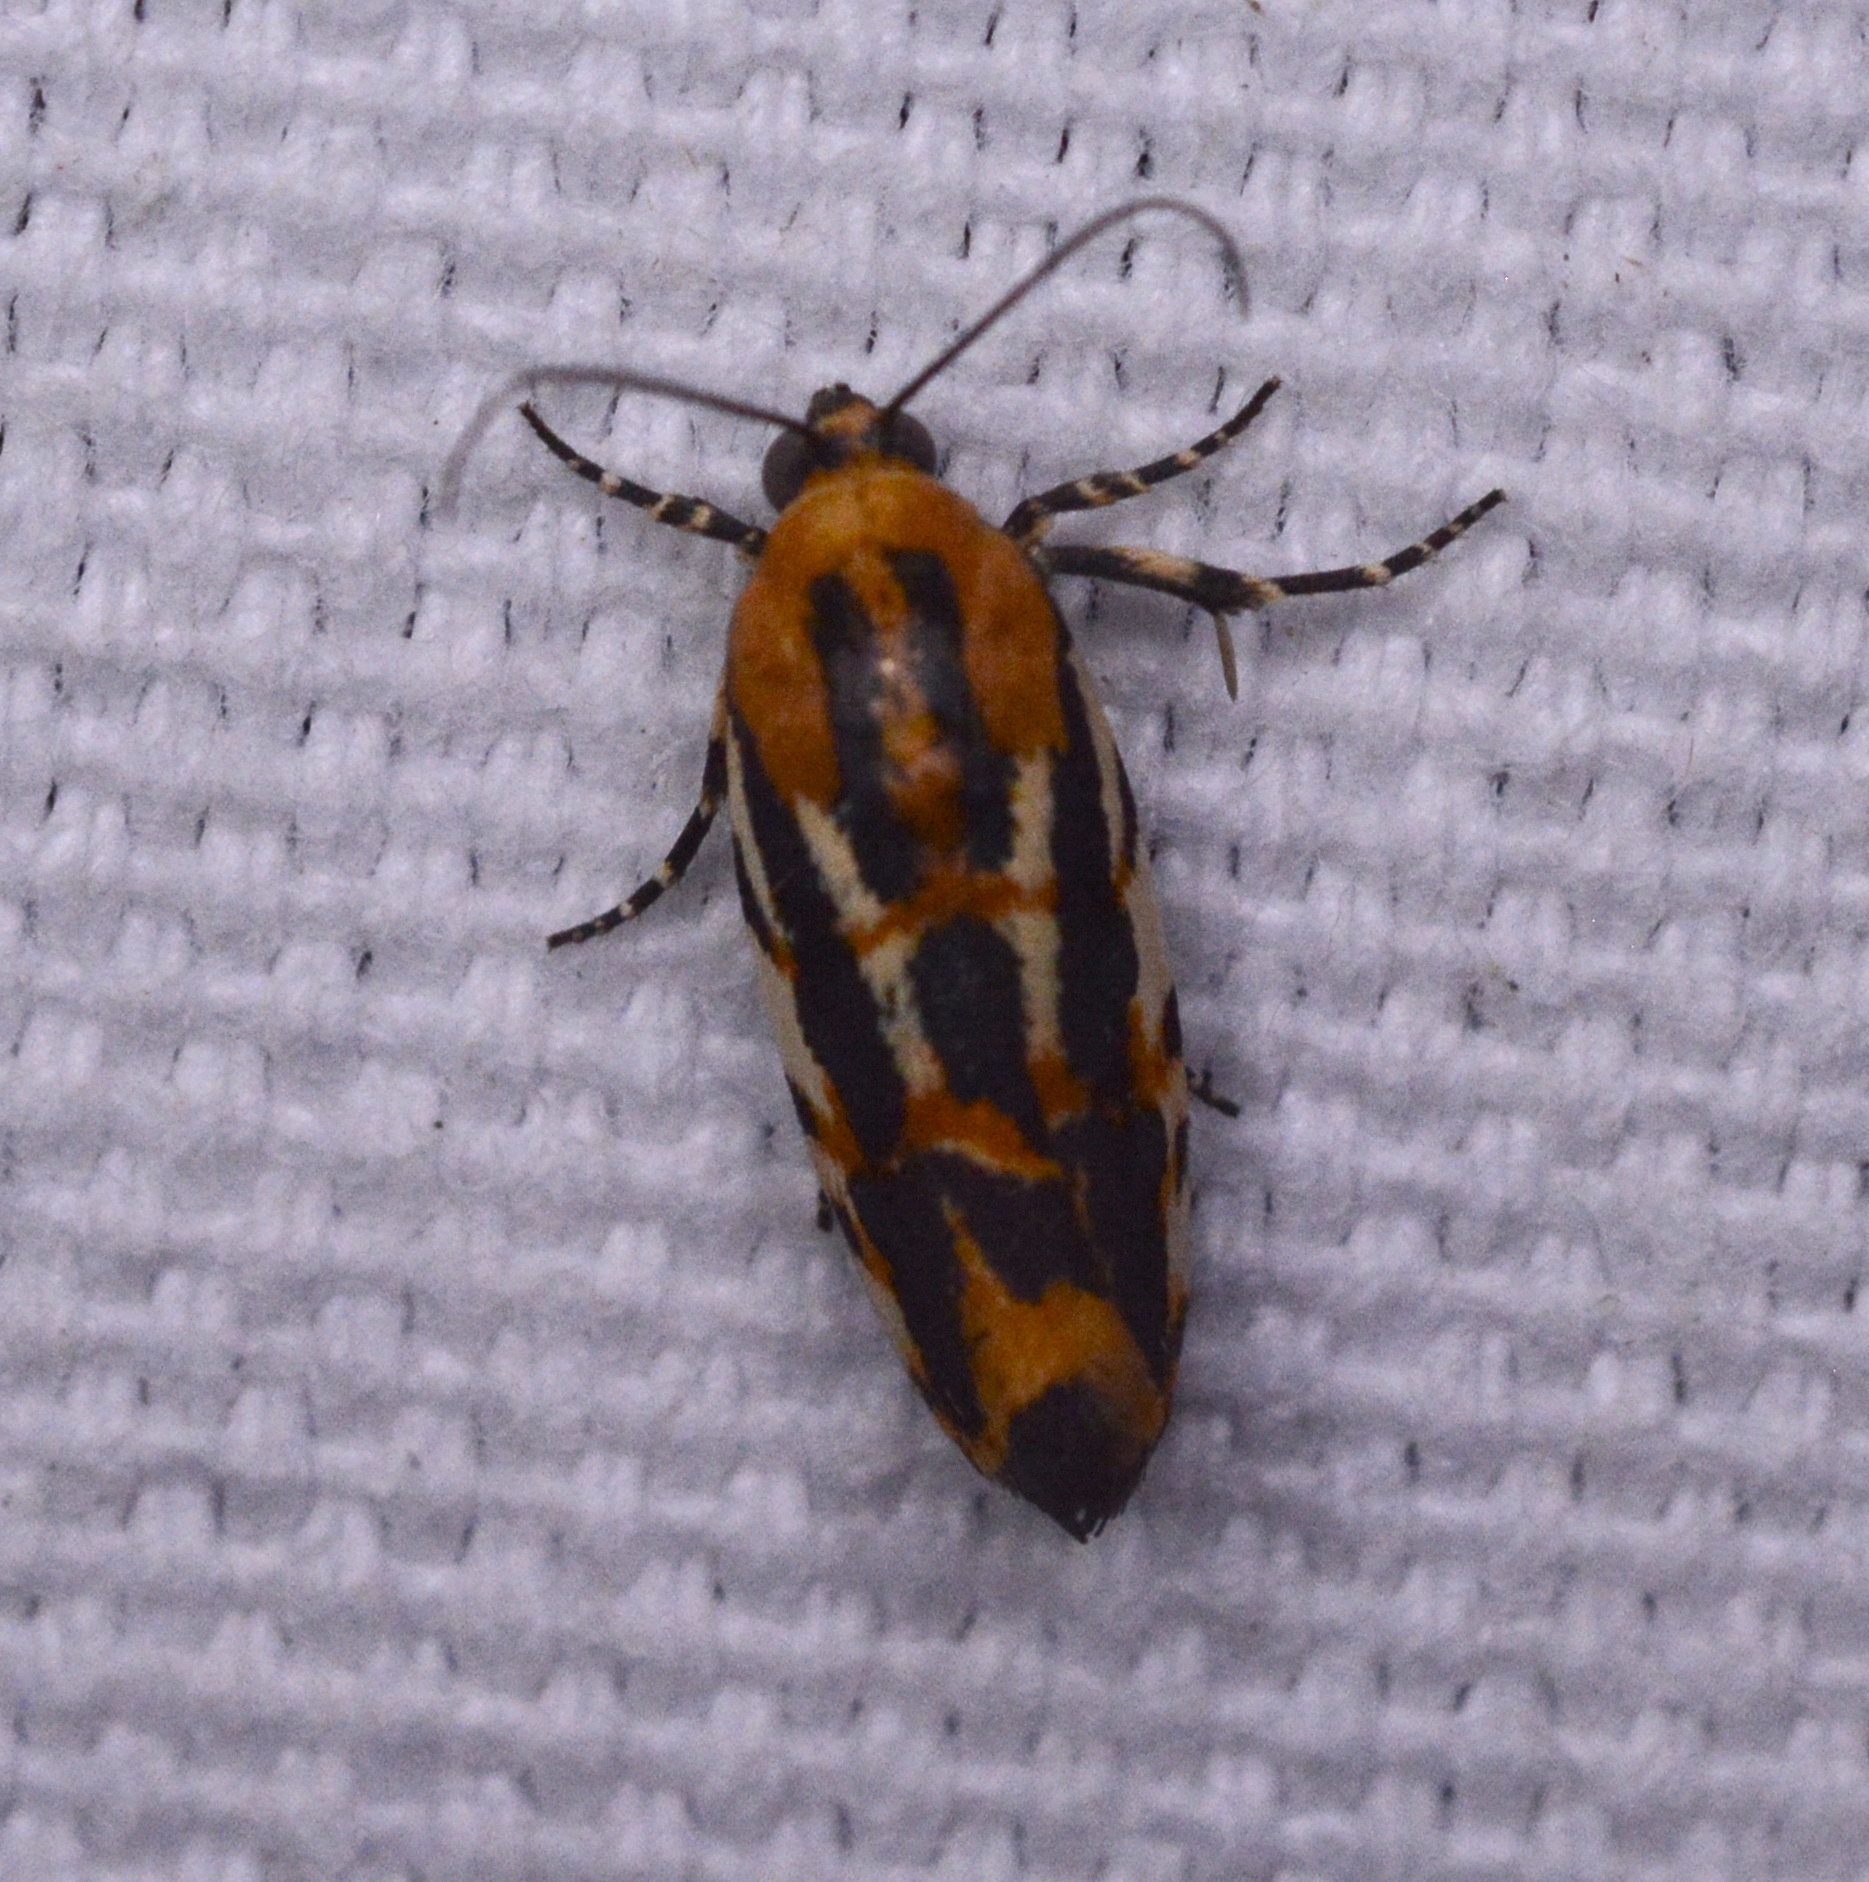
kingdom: Animalia
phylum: Arthropoda
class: Insecta
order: Lepidoptera
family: Noctuidae
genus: Acontia
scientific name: Acontia leo
